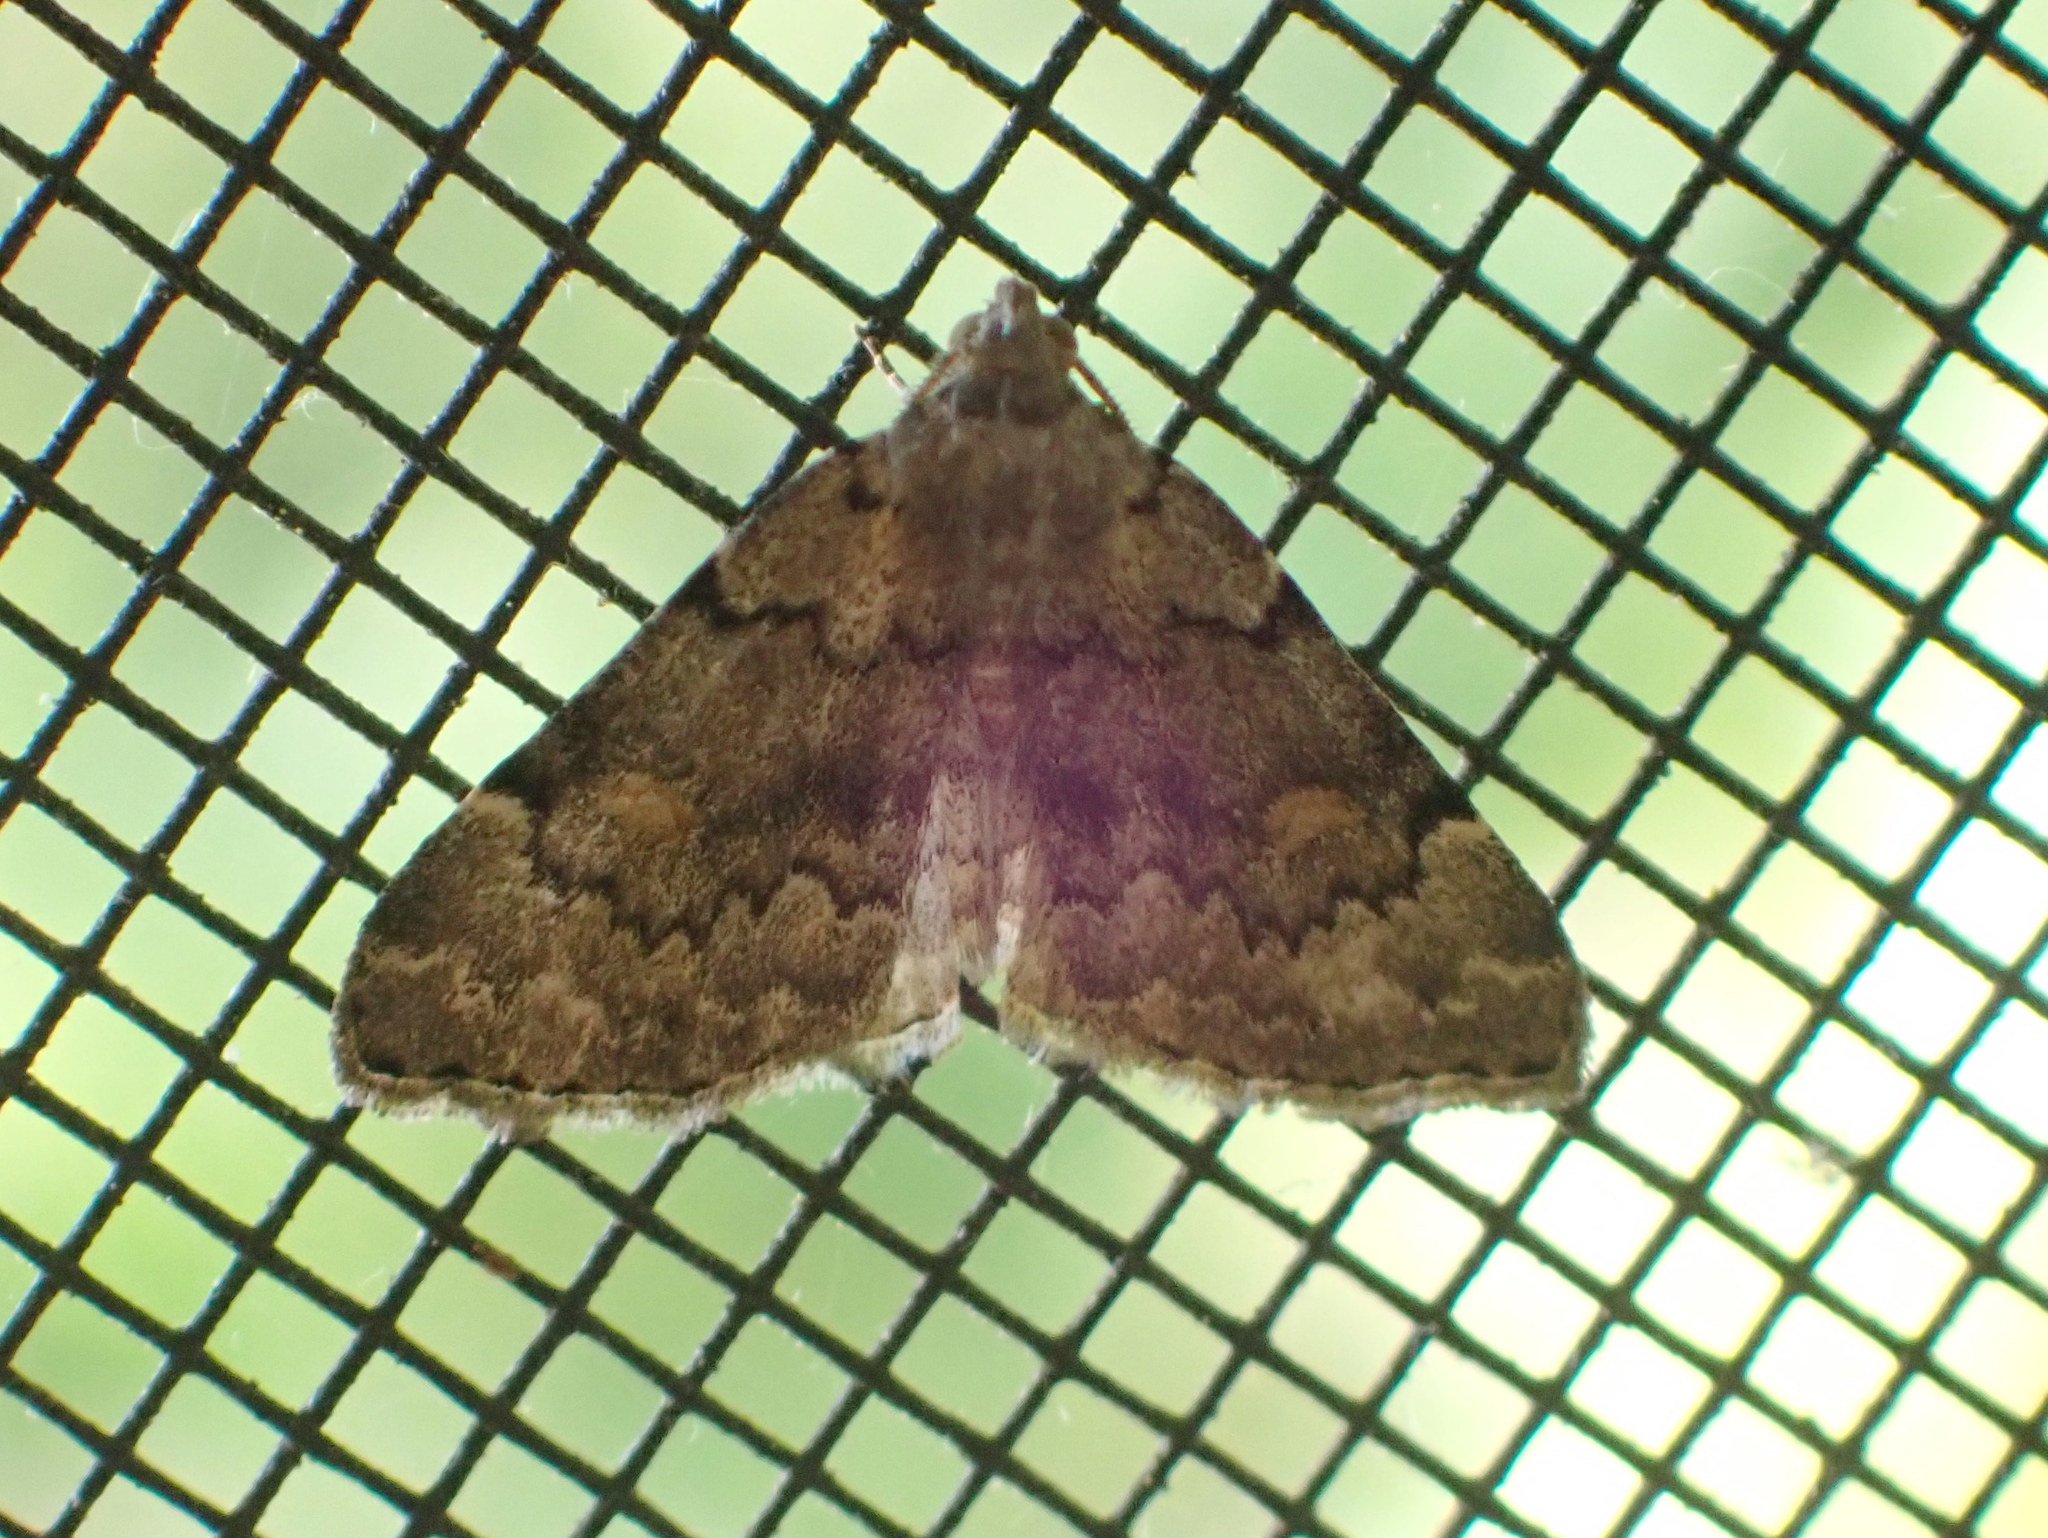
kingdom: Animalia
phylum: Arthropoda
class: Insecta
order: Lepidoptera
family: Erebidae
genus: Idia
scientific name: Idia aemula
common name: Common idia moth
